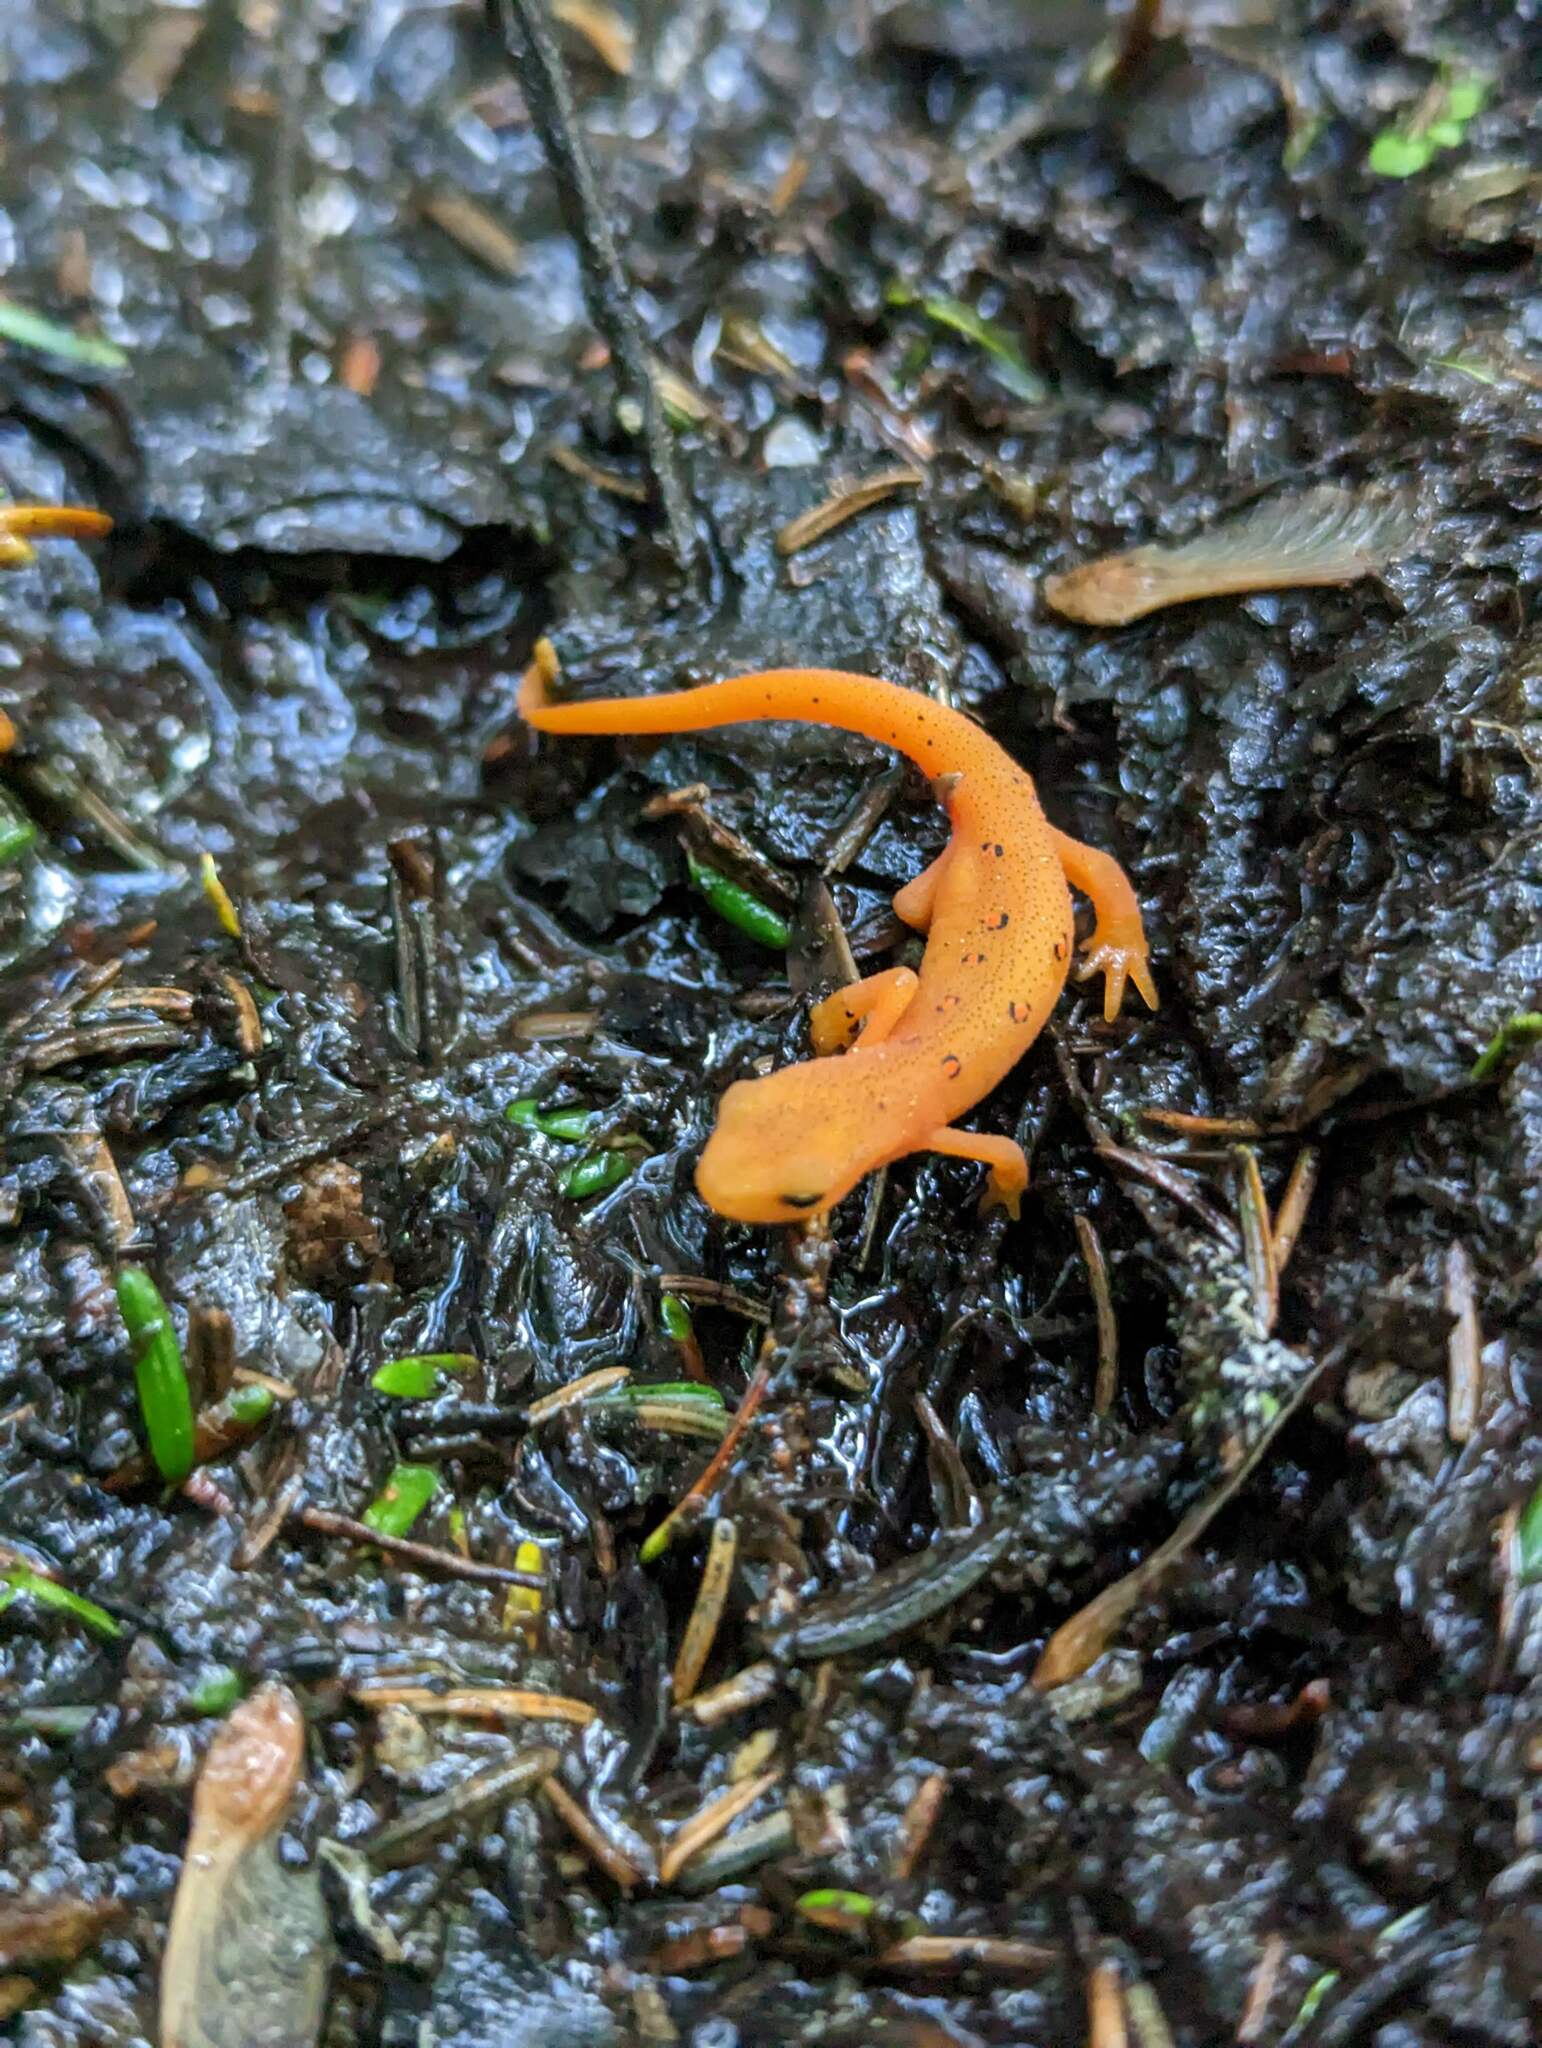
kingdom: Animalia
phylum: Chordata
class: Amphibia
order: Caudata
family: Salamandridae
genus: Notophthalmus
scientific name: Notophthalmus viridescens
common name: Eastern newt
